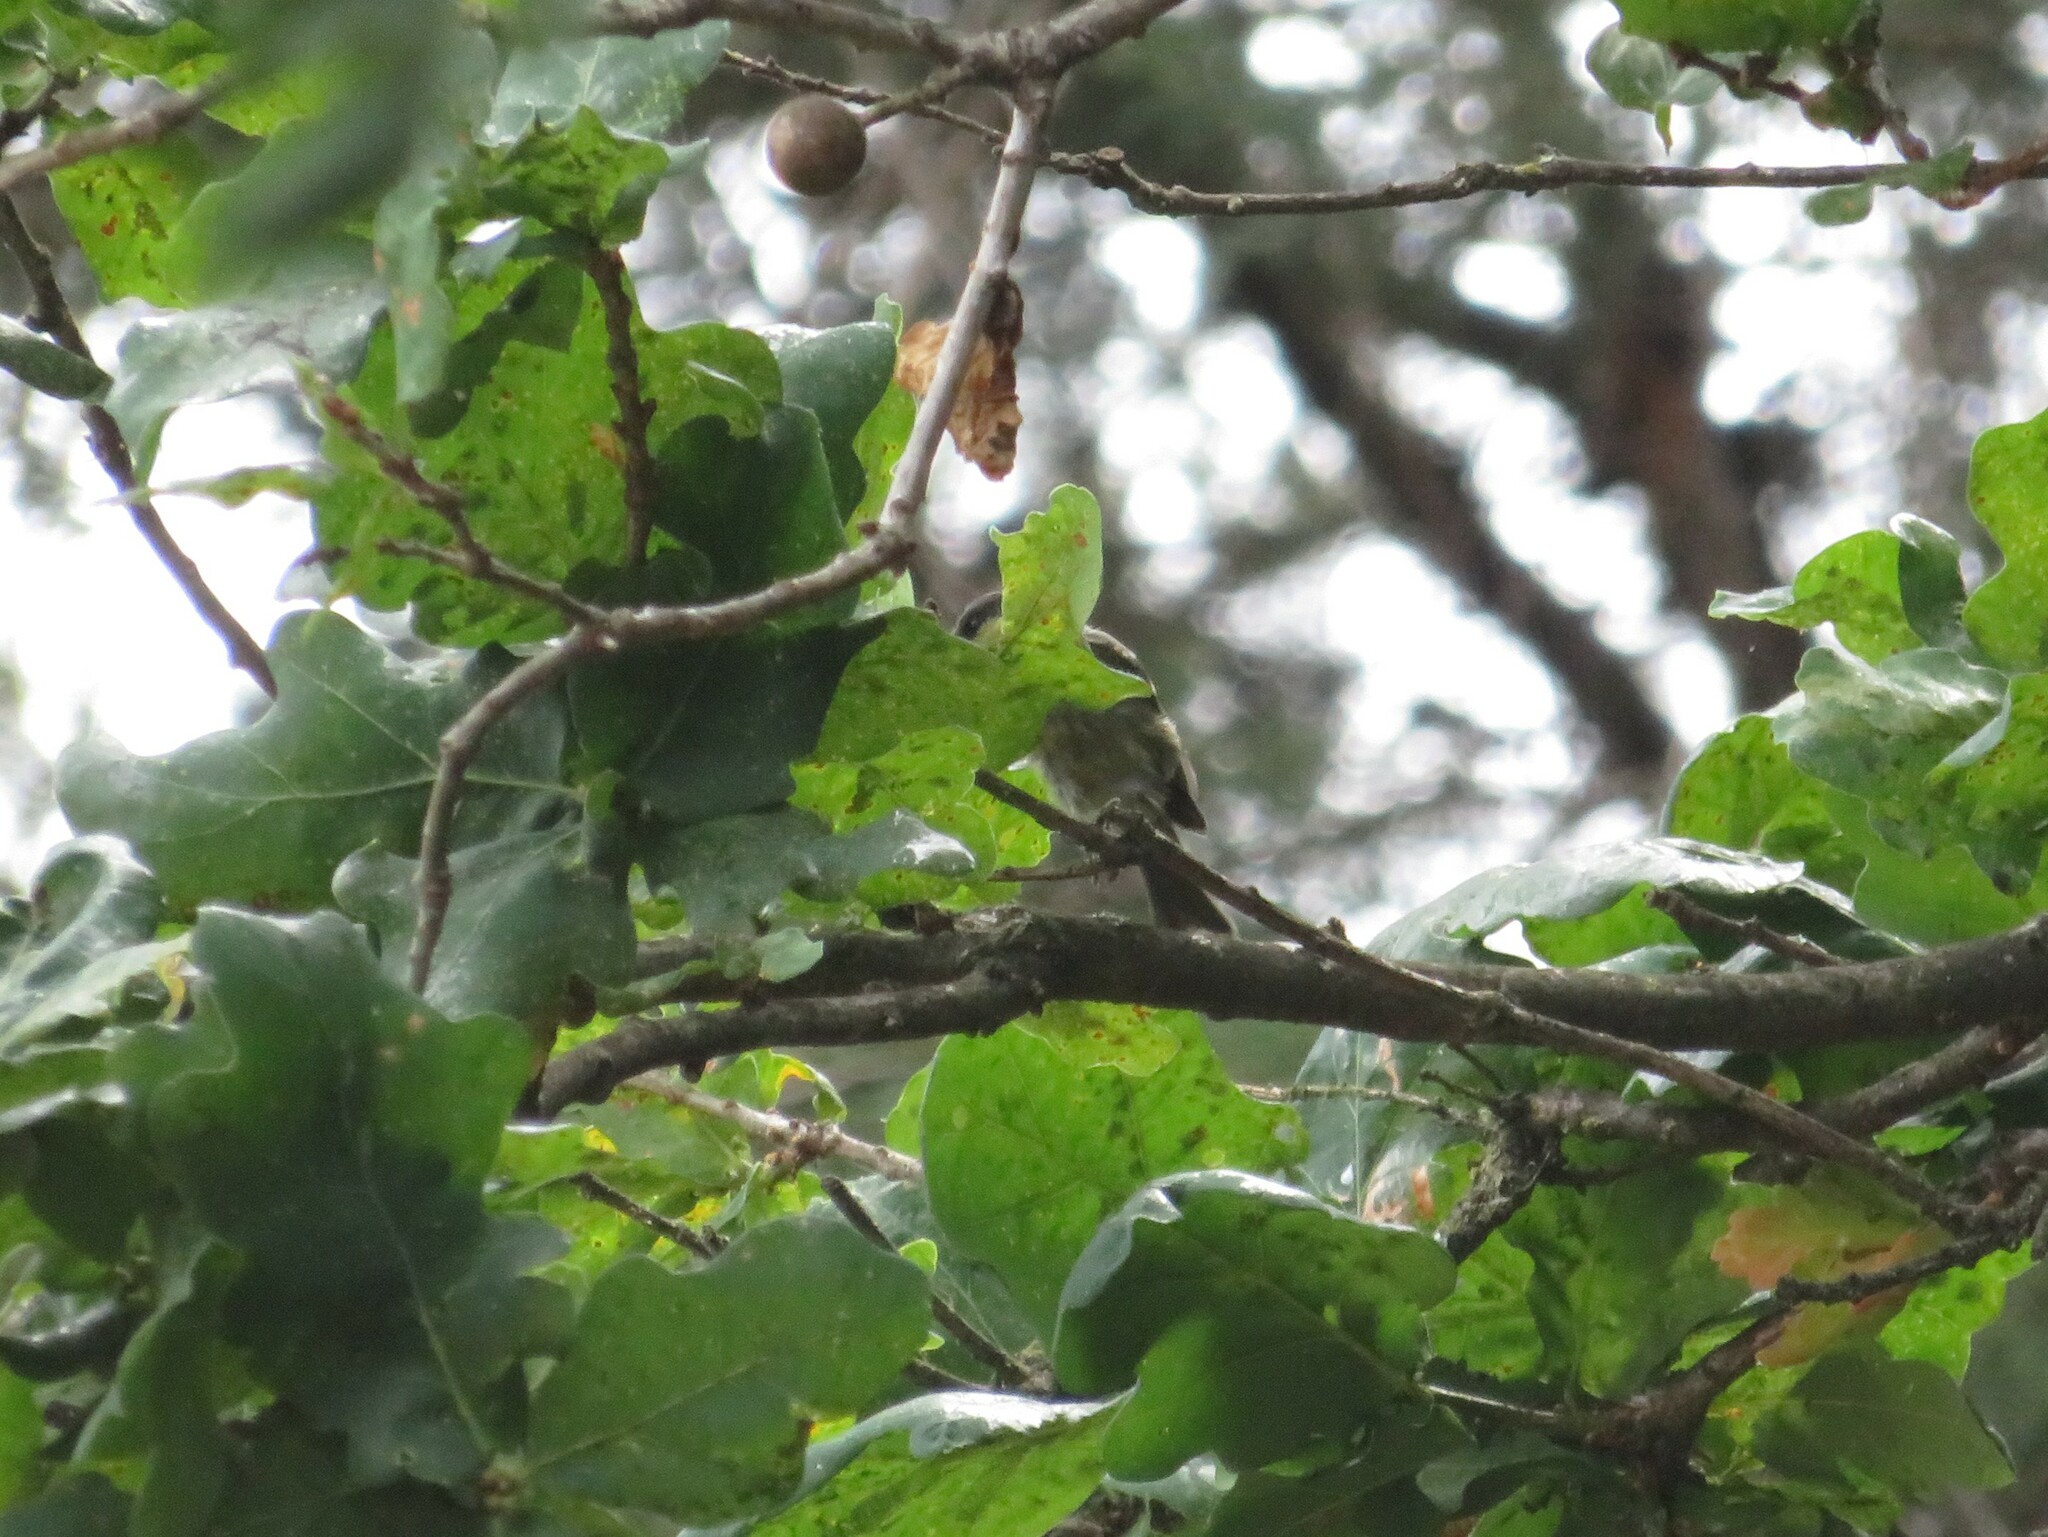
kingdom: Animalia
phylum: Chordata
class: Aves
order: Passeriformes
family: Paridae
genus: Periparus
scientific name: Periparus ater
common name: Coal tit
